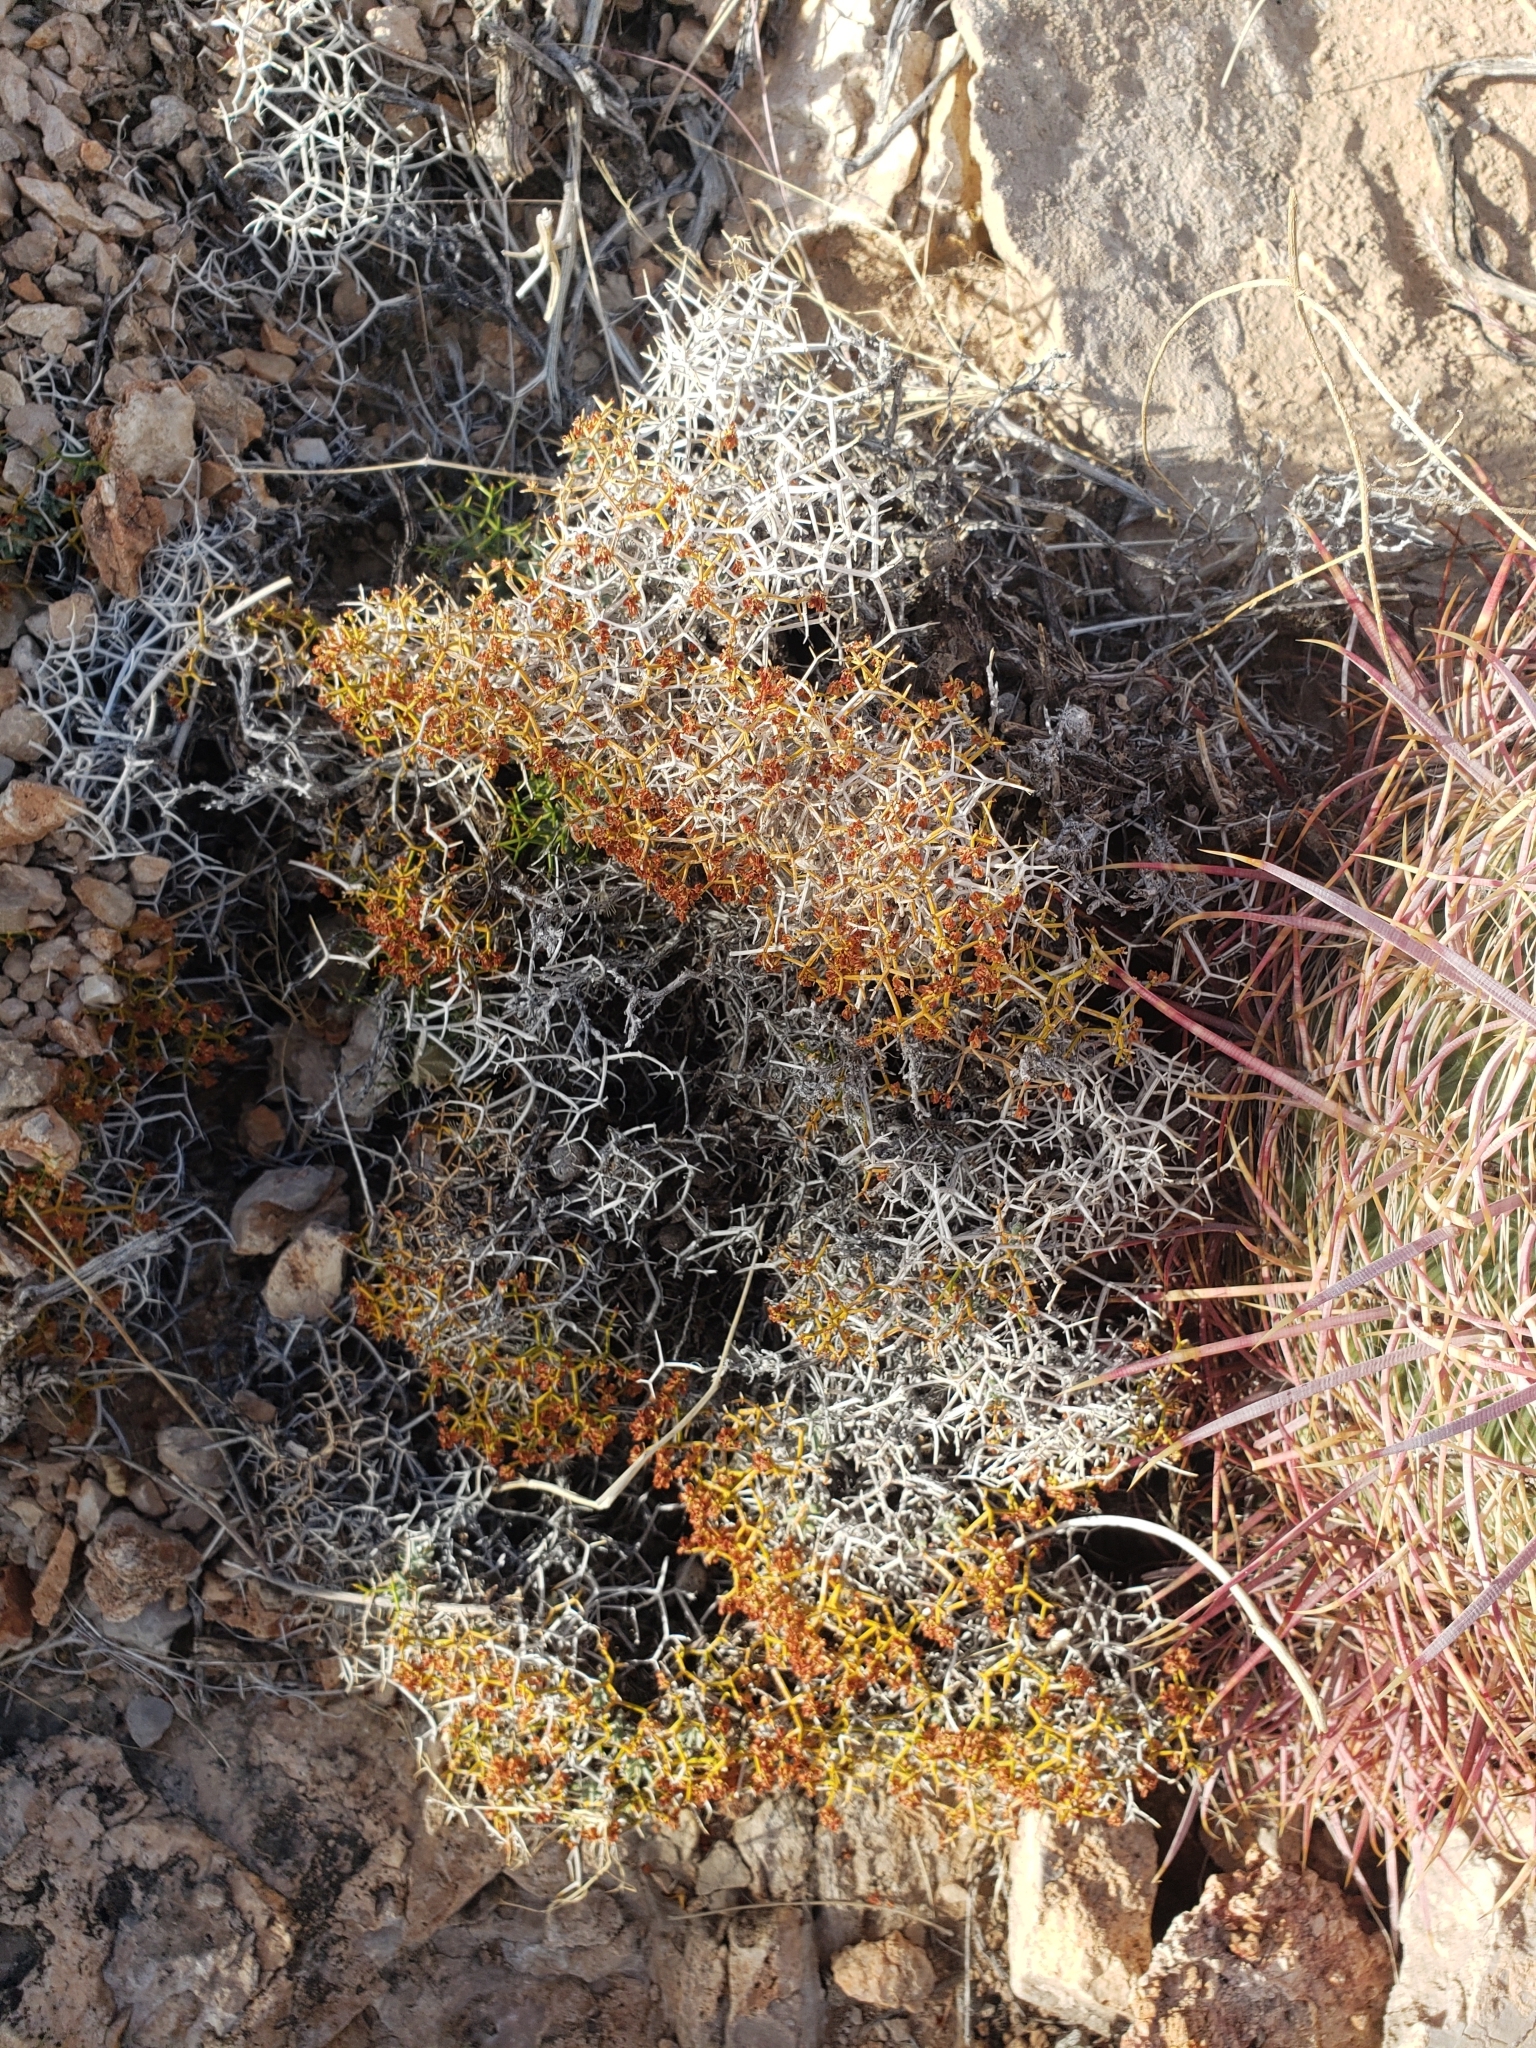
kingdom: Plantae
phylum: Tracheophyta
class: Magnoliopsida
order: Caryophyllales
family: Polygonaceae
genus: Eriogonum
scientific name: Eriogonum heermannii
